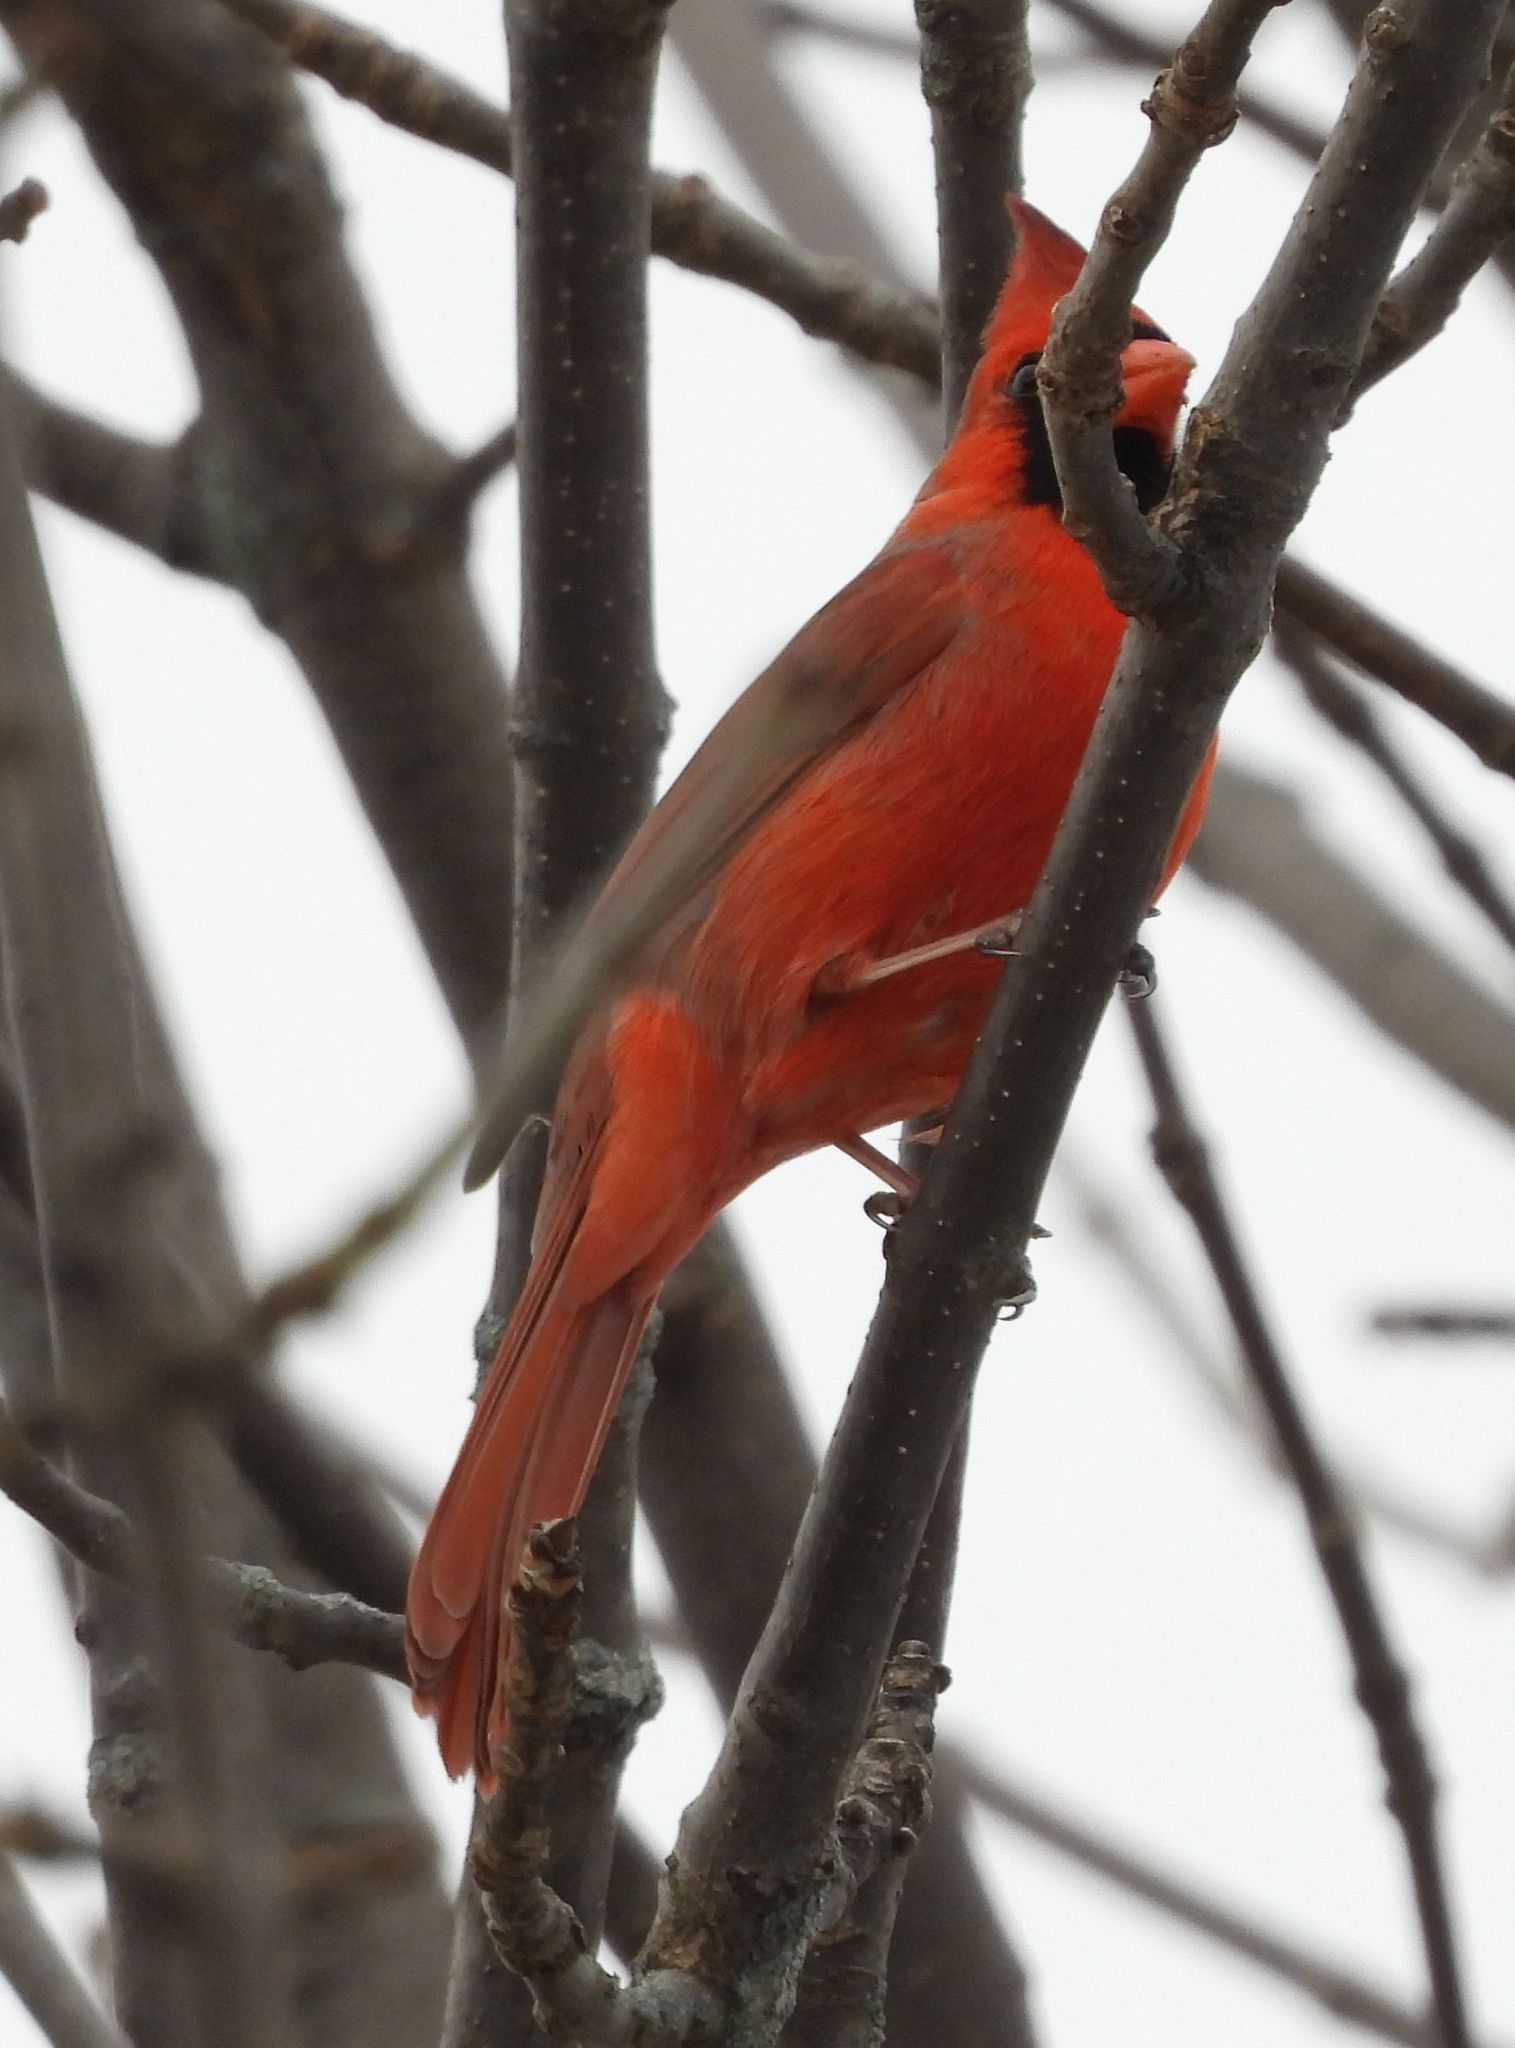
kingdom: Animalia
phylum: Chordata
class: Aves
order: Passeriformes
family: Cardinalidae
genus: Cardinalis
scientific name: Cardinalis cardinalis
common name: Northern cardinal
